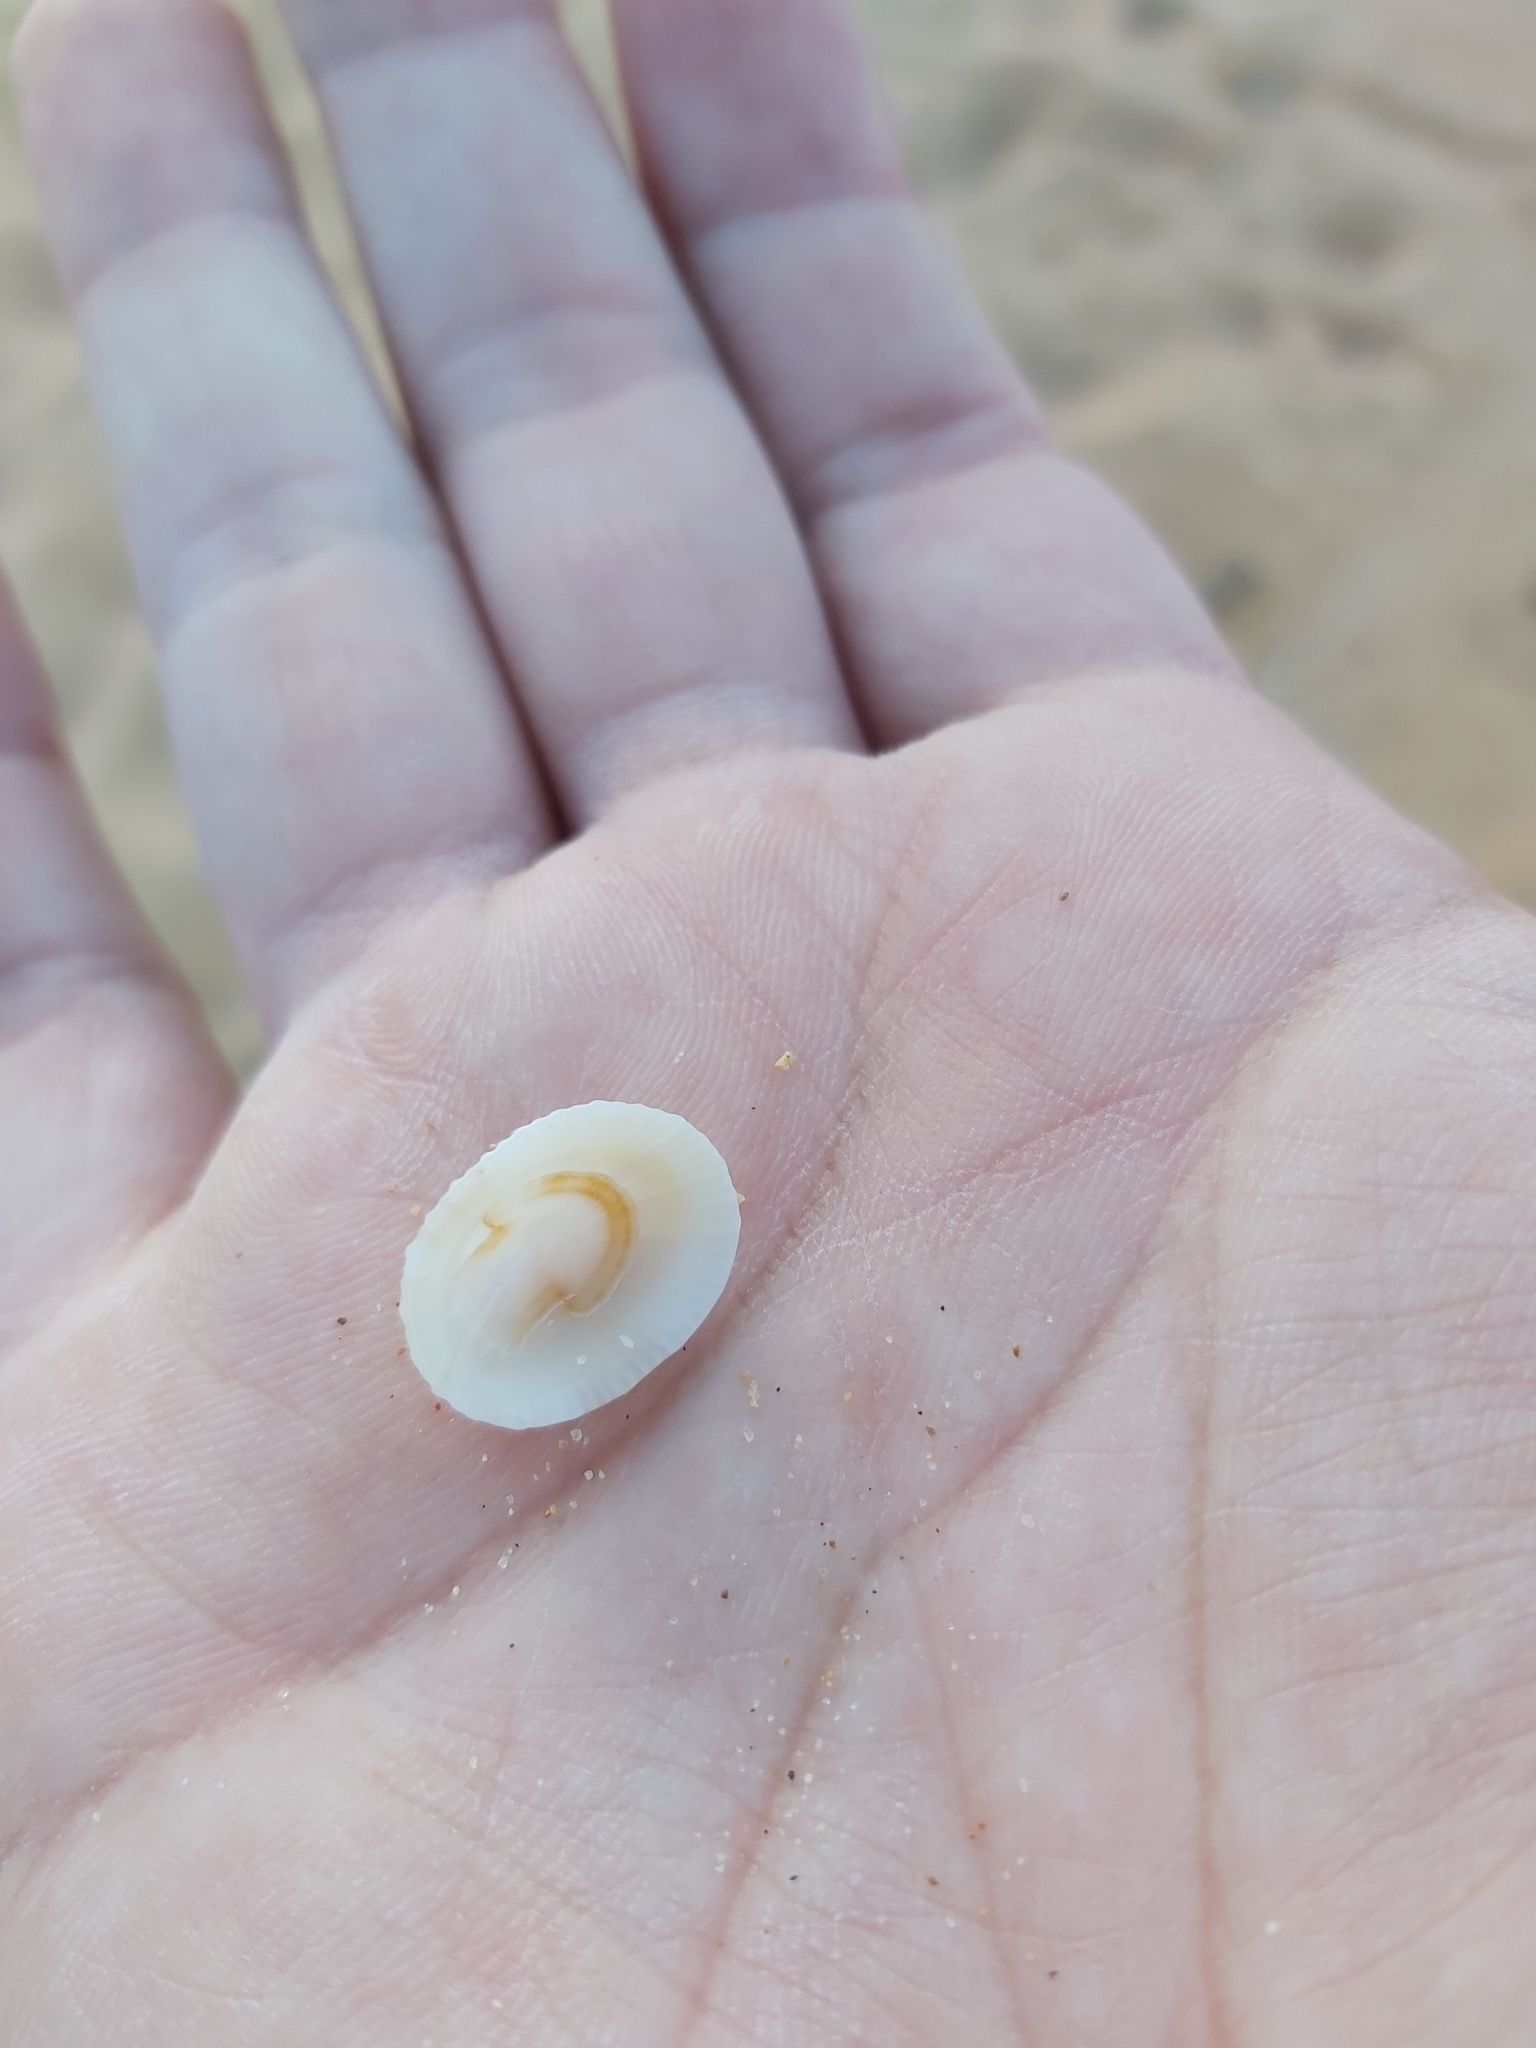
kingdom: Animalia
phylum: Mollusca
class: Gastropoda
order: Lepetellida
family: Fissurellidae
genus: Montfortula
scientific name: Montfortula rugosa
